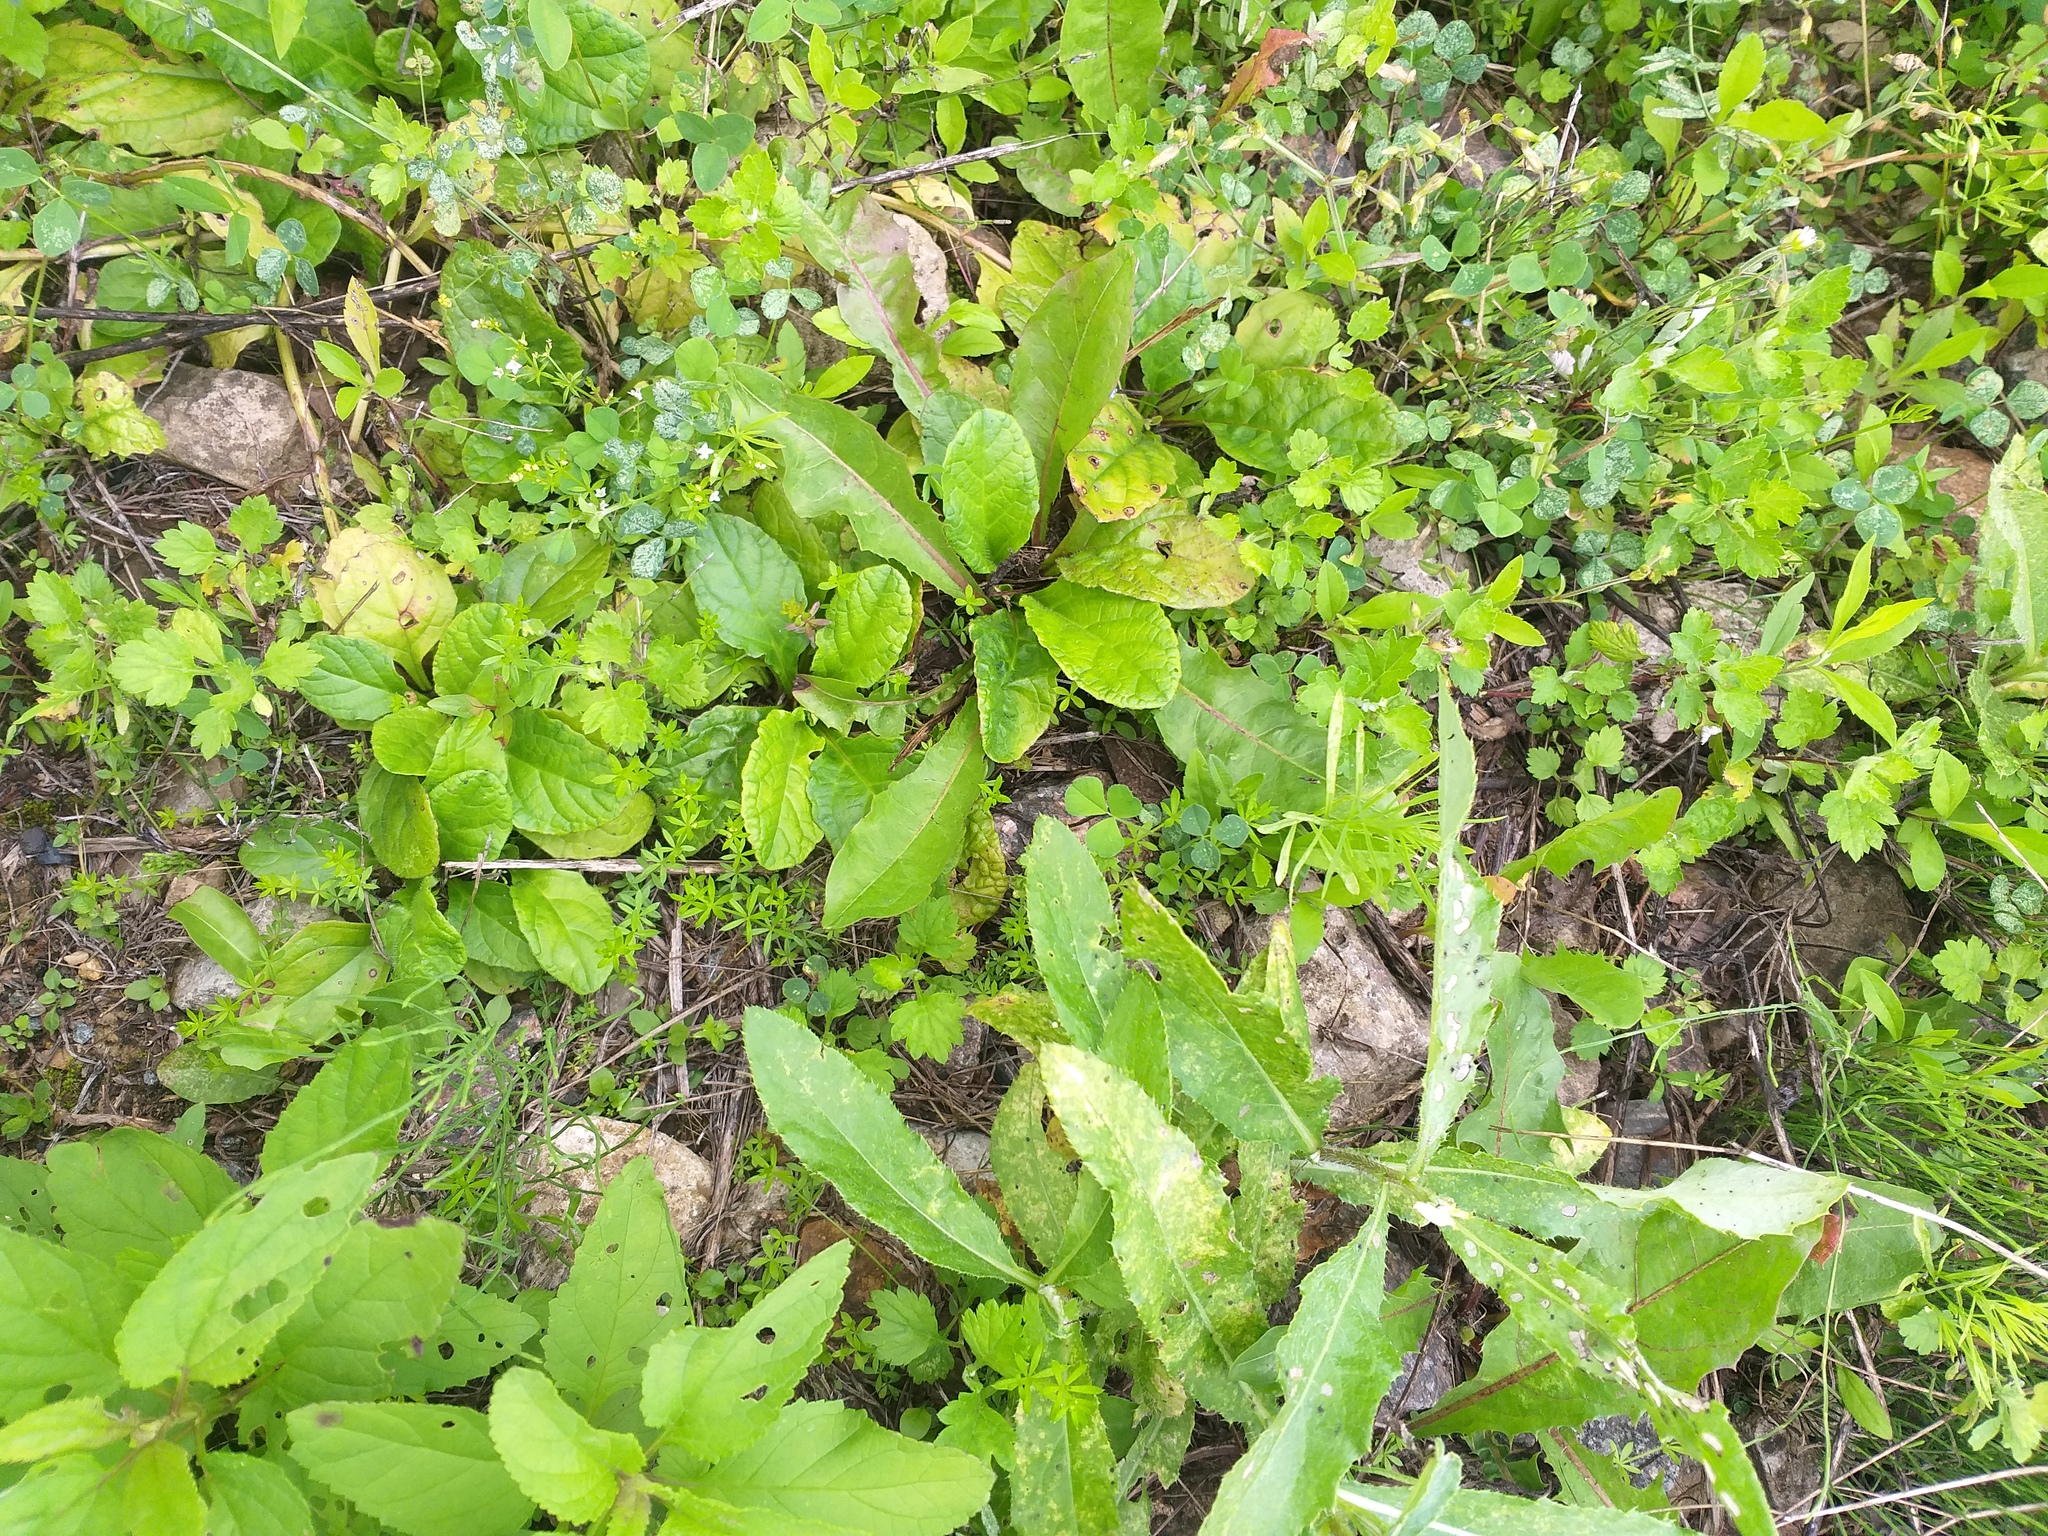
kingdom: Plantae
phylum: Tracheophyta
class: Magnoliopsida
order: Lamiales
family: Lamiaceae
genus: Ajuga
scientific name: Ajuga reptans
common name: Bugle
